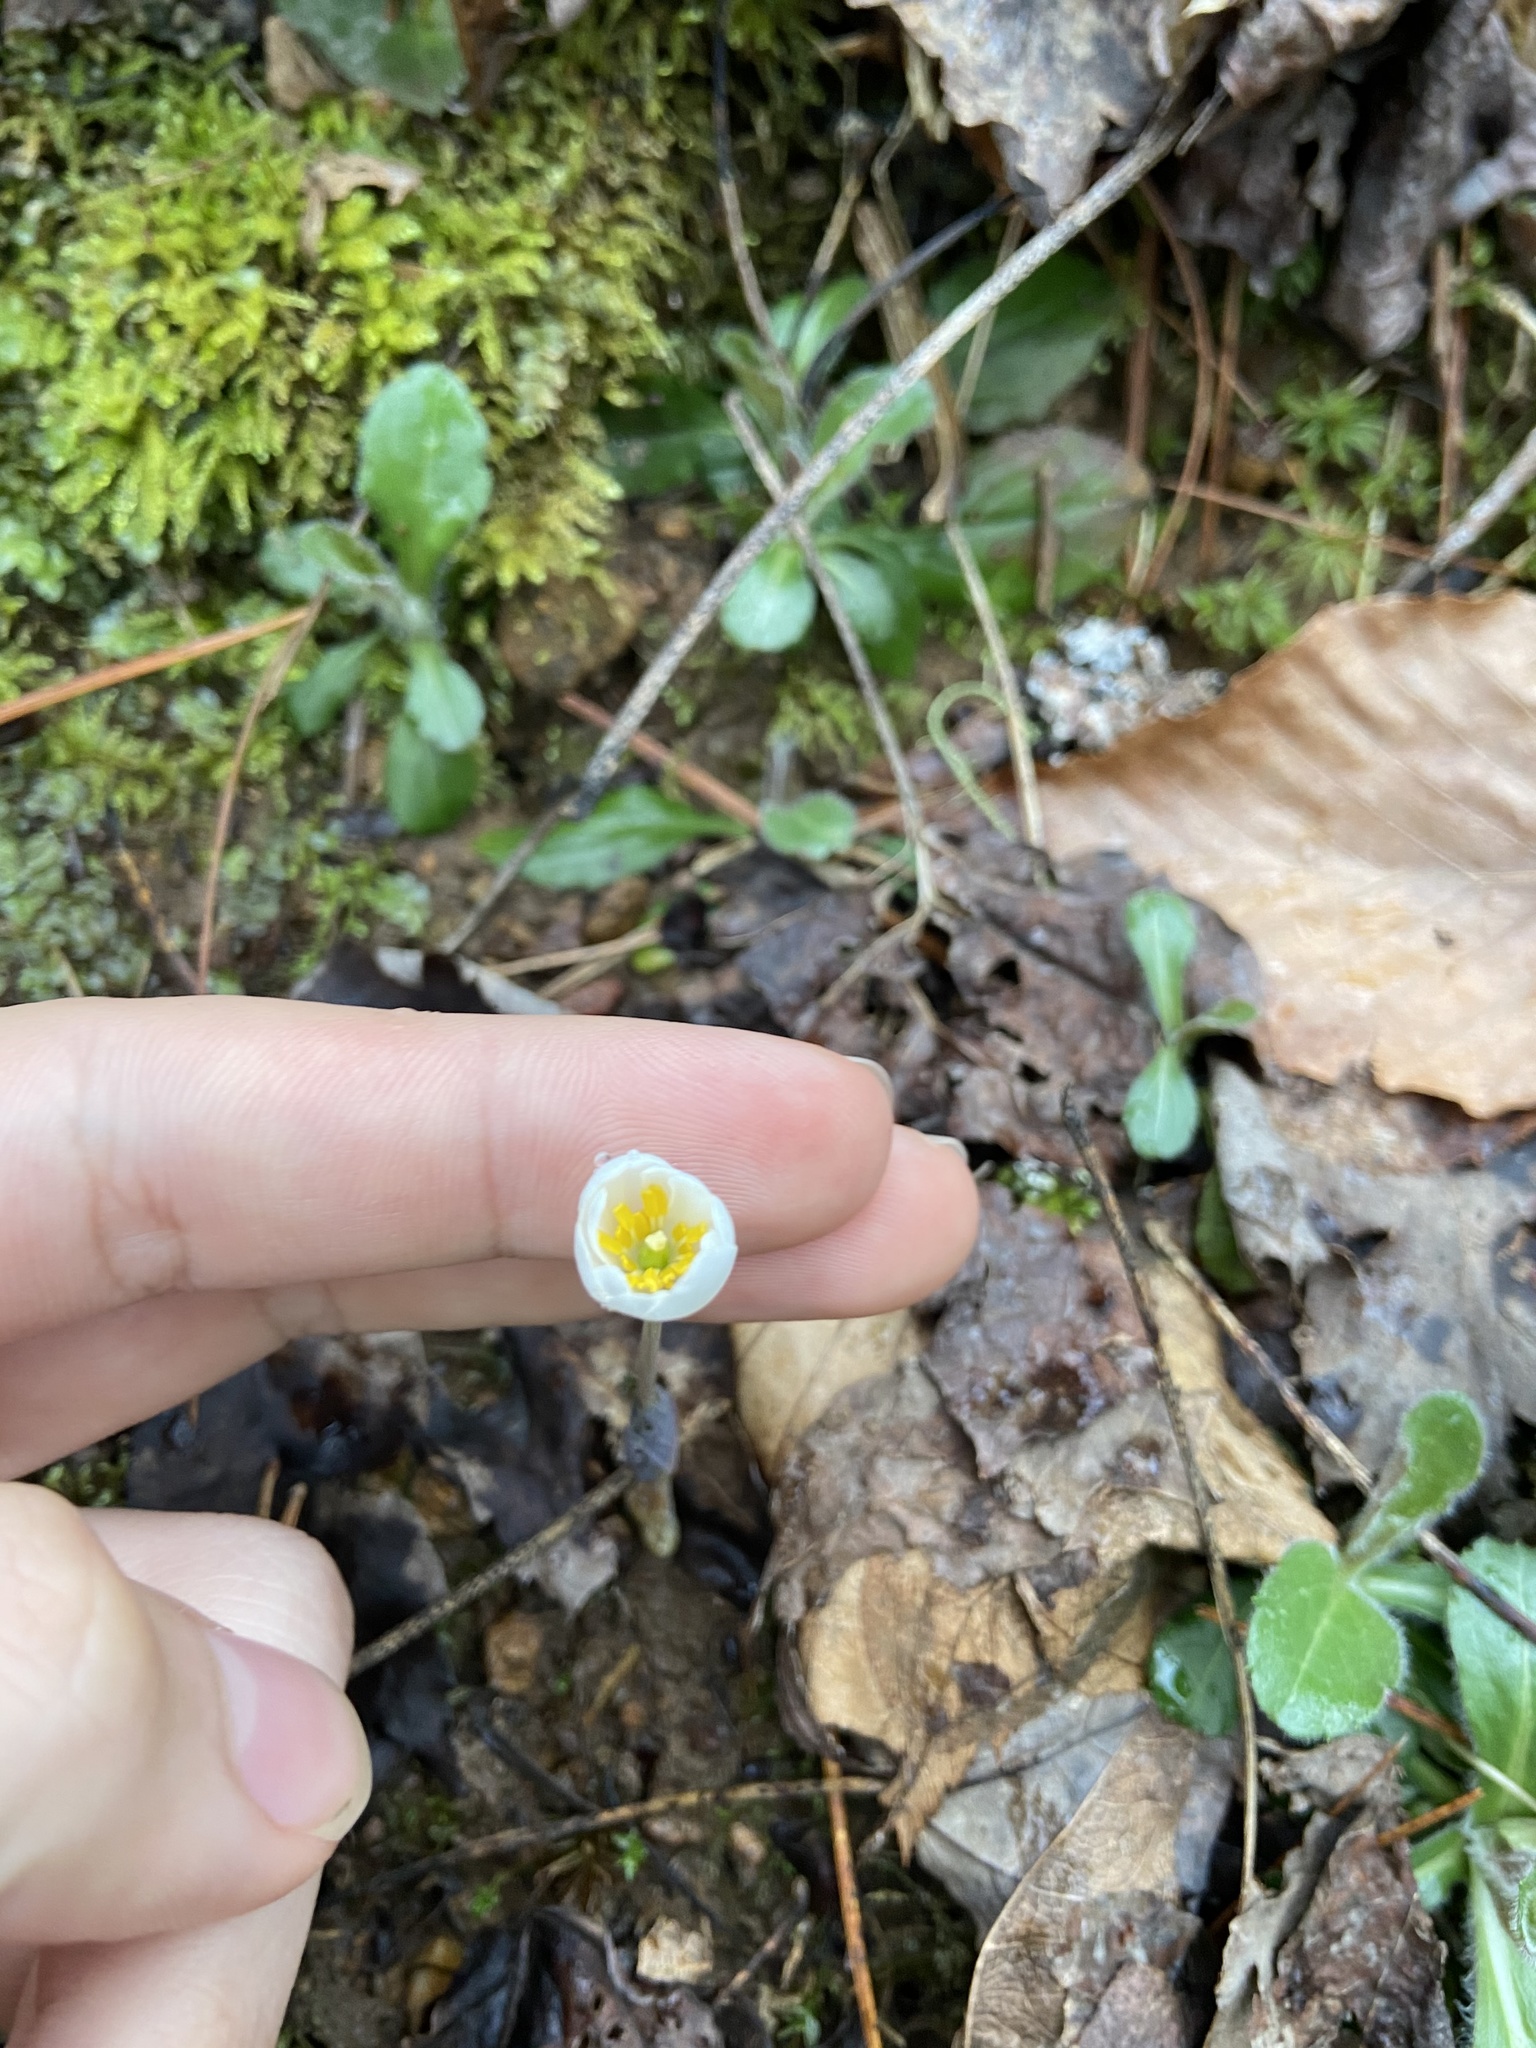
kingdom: Plantae
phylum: Tracheophyta
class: Magnoliopsida
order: Ranunculales
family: Papaveraceae
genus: Sanguinaria
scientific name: Sanguinaria canadensis
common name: Bloodroot
